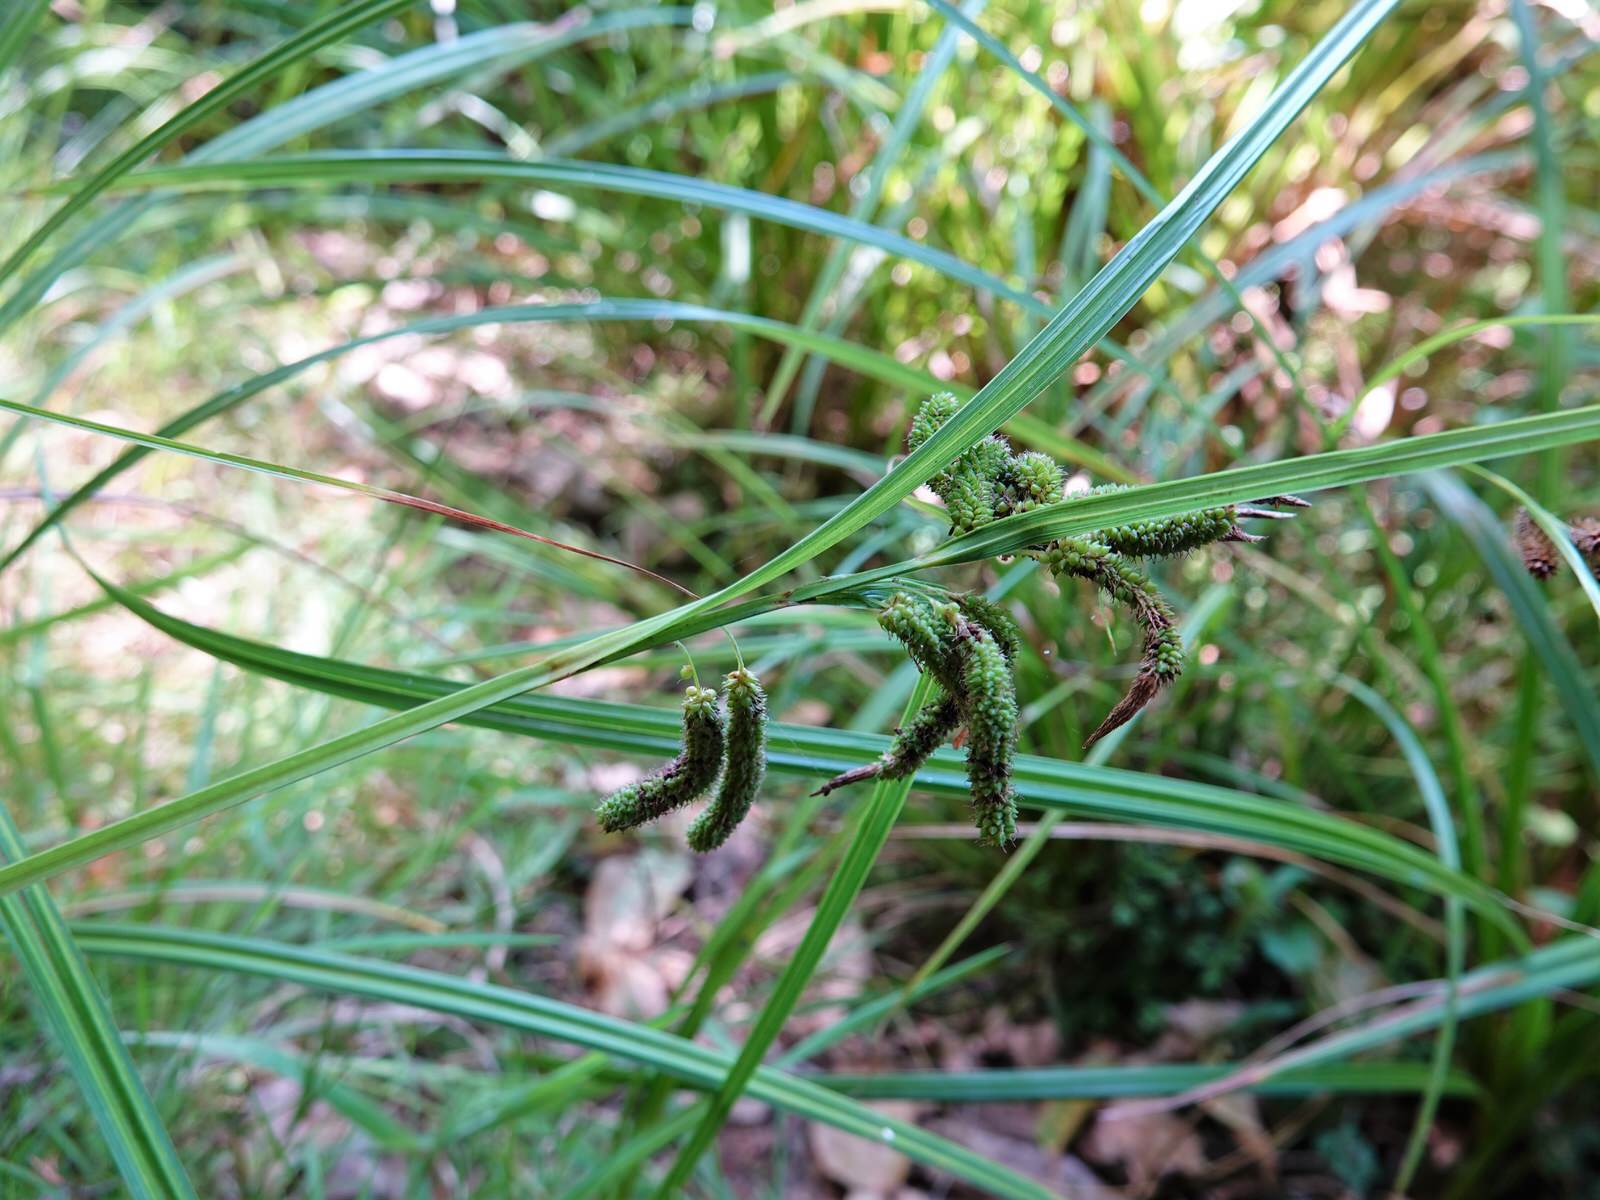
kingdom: Plantae
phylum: Tracheophyta
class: Liliopsida
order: Poales
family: Cyperaceae
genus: Carex
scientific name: Carex lessoniana
